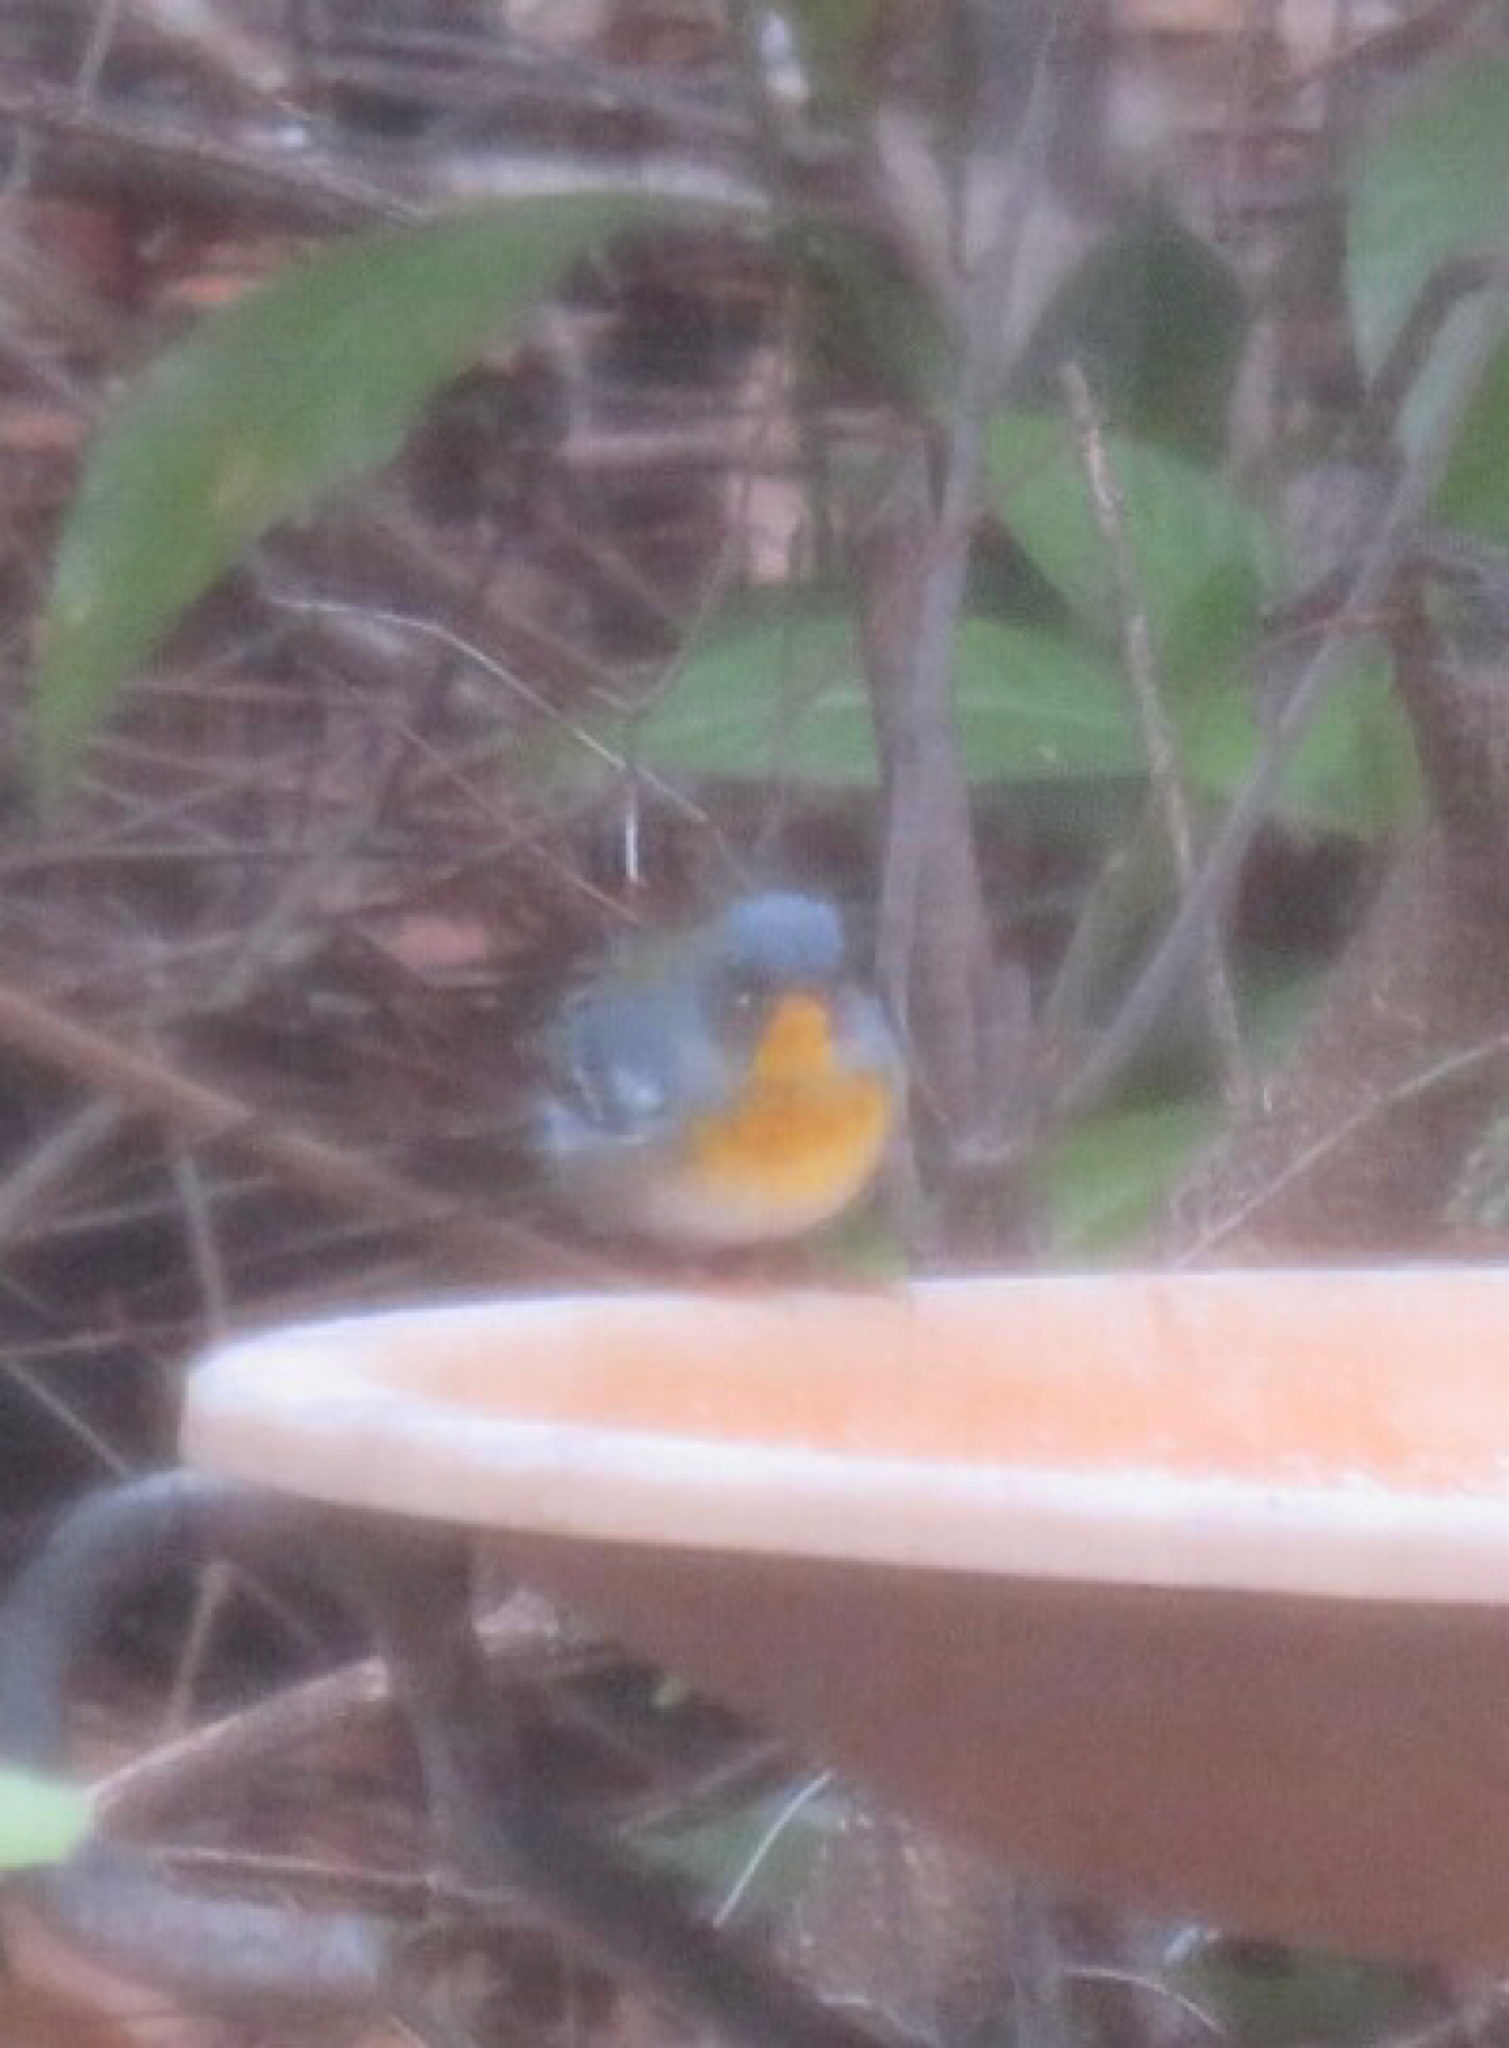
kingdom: Animalia
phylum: Chordata
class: Aves
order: Passeriformes
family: Parulidae
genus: Setophaga
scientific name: Setophaga americana
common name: Northern parula
